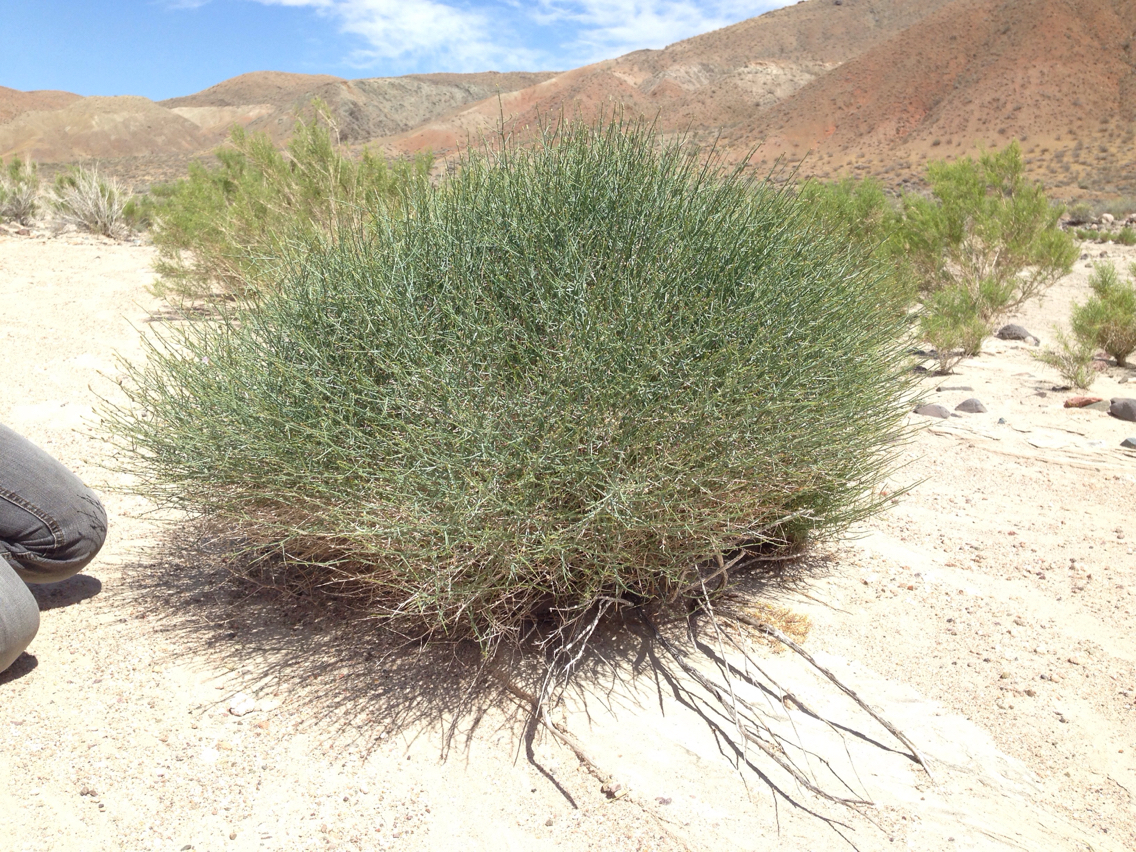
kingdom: Plantae
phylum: Tracheophyta
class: Magnoliopsida
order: Asterales
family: Asteraceae
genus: Stephanomeria
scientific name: Stephanomeria pauciflora
